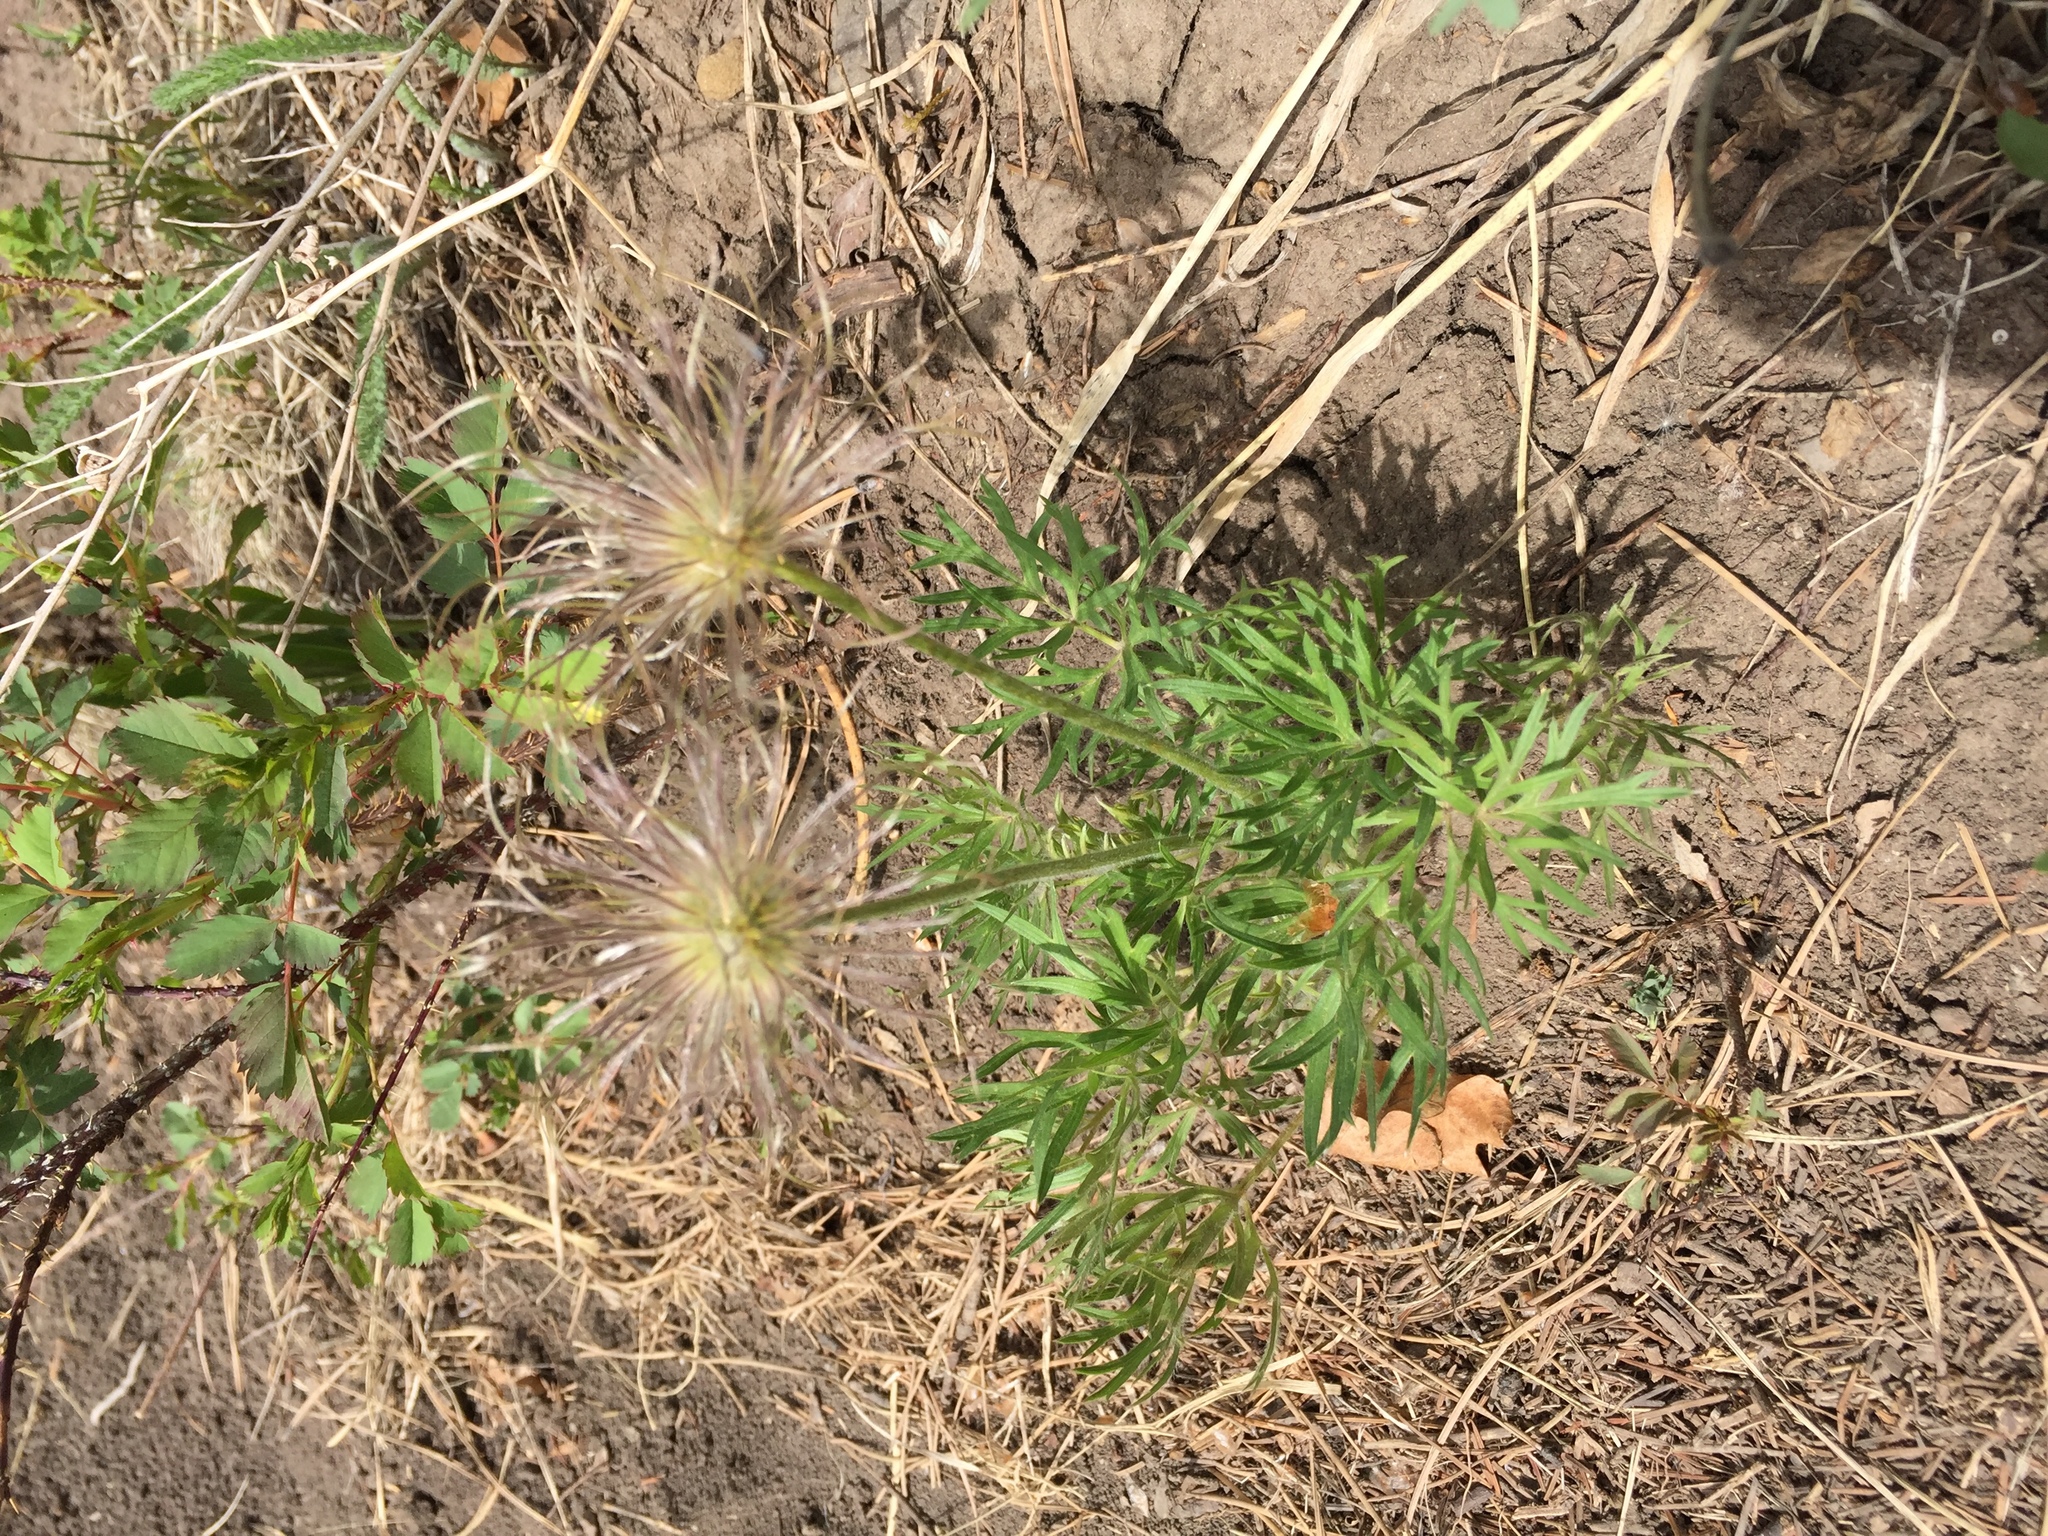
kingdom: Plantae
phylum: Tracheophyta
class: Magnoliopsida
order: Ranunculales
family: Ranunculaceae
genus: Pulsatilla
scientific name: Pulsatilla nuttalliana
